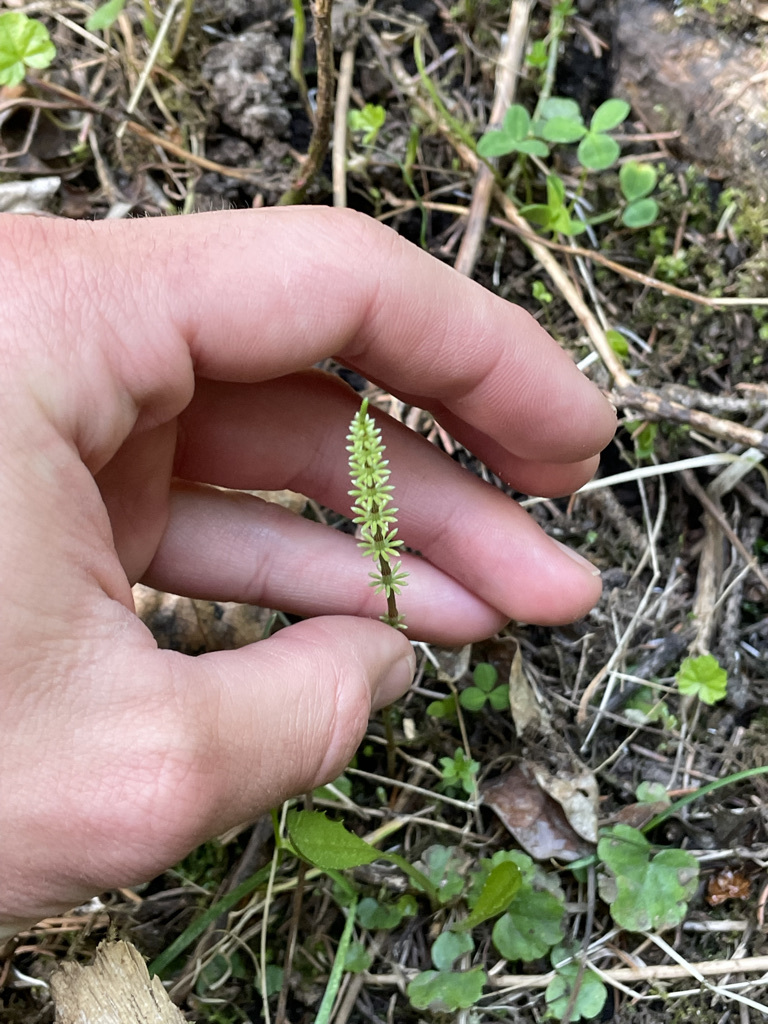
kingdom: Plantae
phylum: Tracheophyta
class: Polypodiopsida
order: Equisetales
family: Equisetaceae
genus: Equisetum
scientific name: Equisetum pratense
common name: Meadow horsetail
